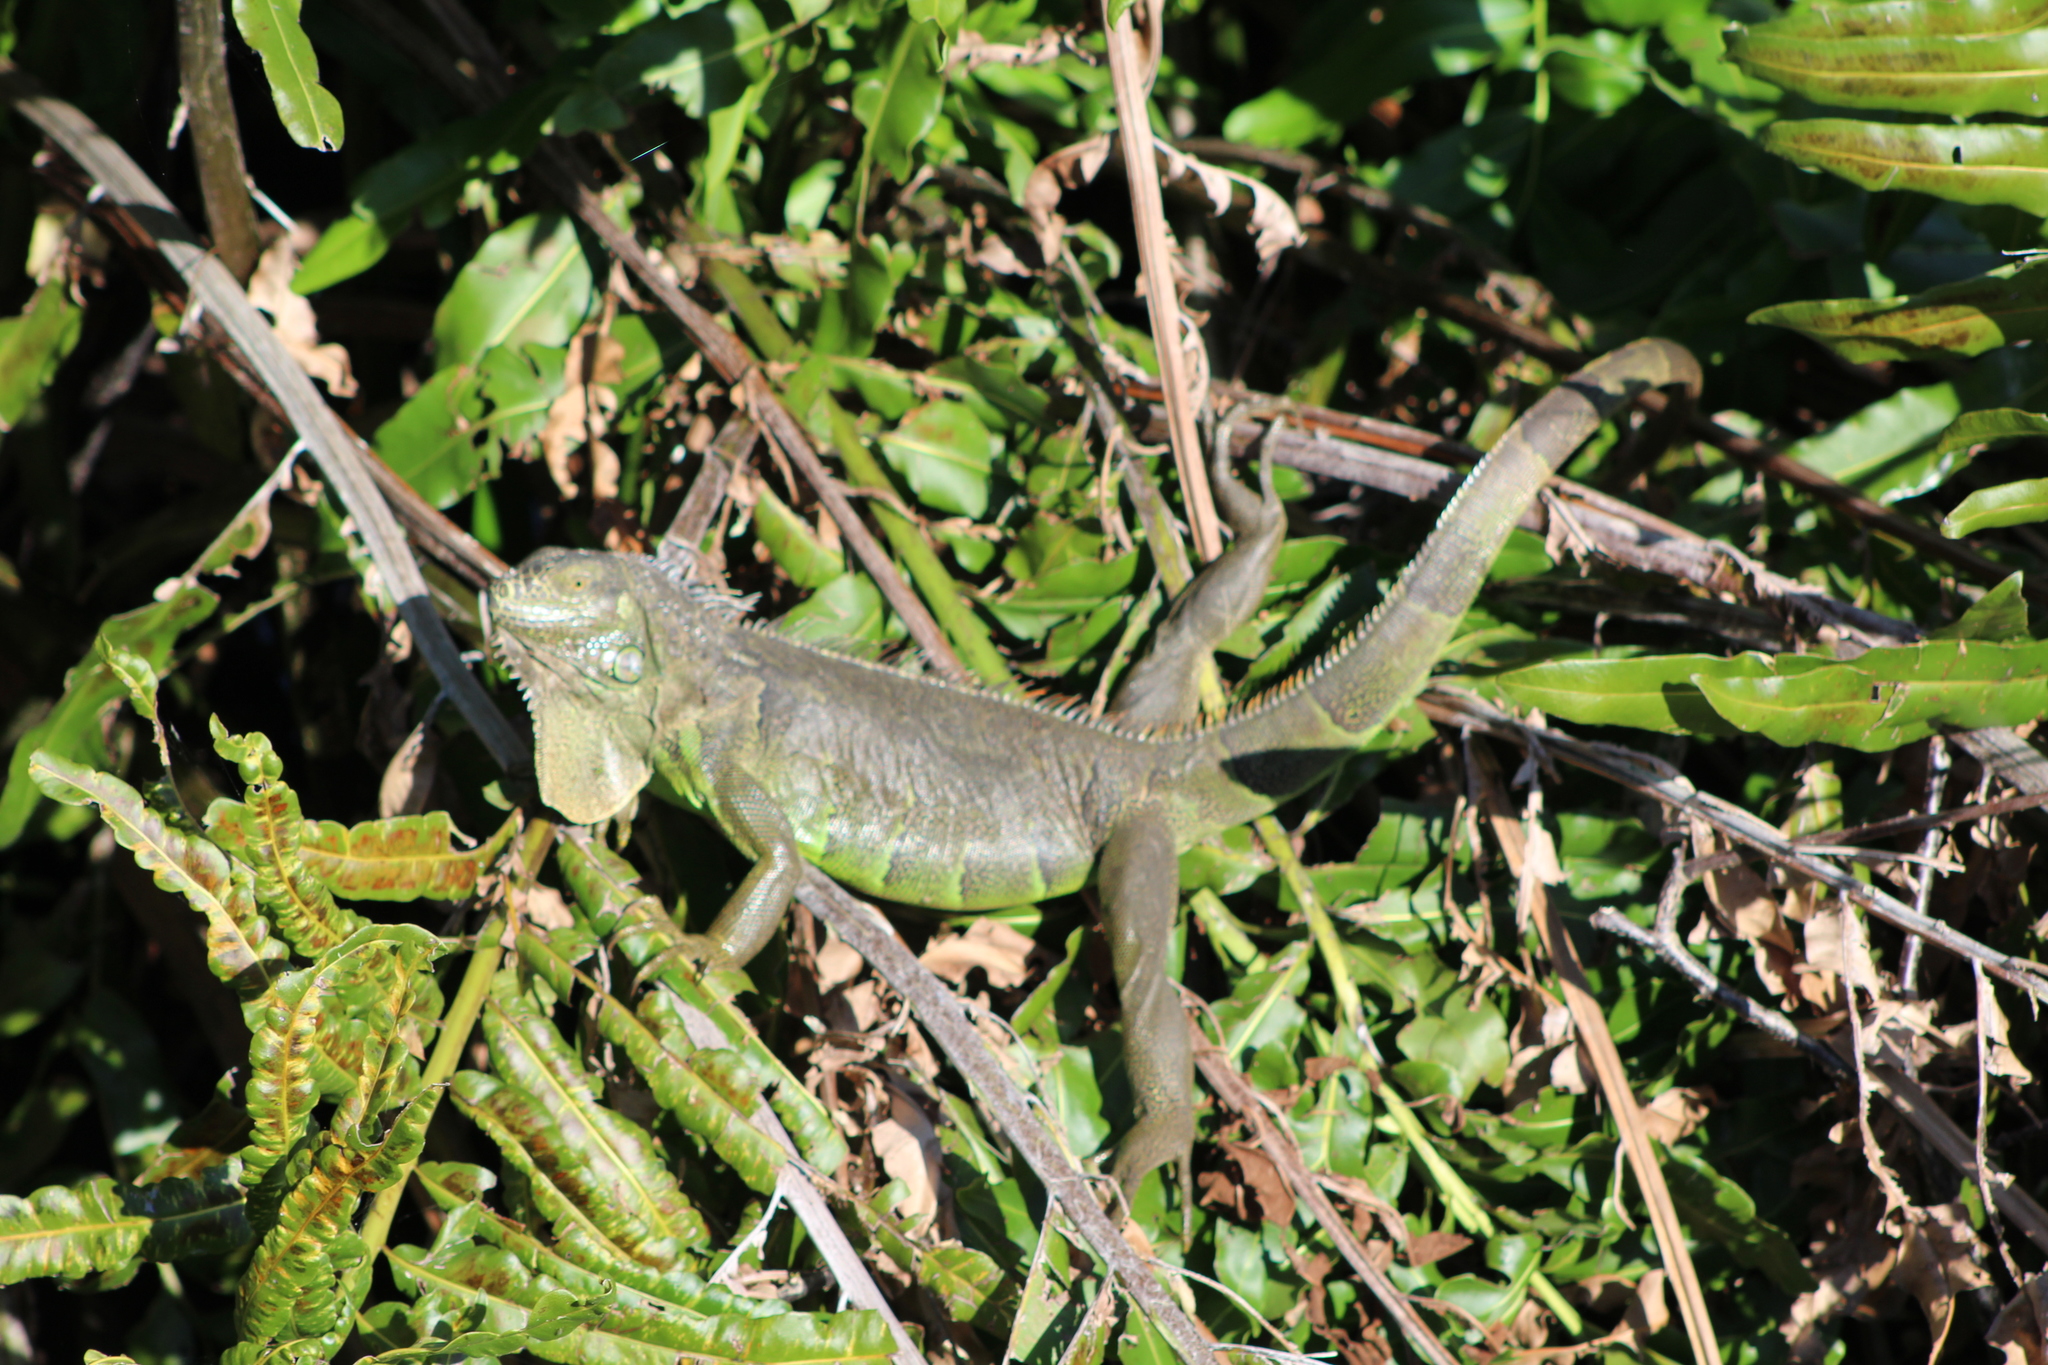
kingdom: Animalia
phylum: Chordata
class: Squamata
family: Iguanidae
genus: Iguana
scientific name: Iguana iguana
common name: Green iguana
